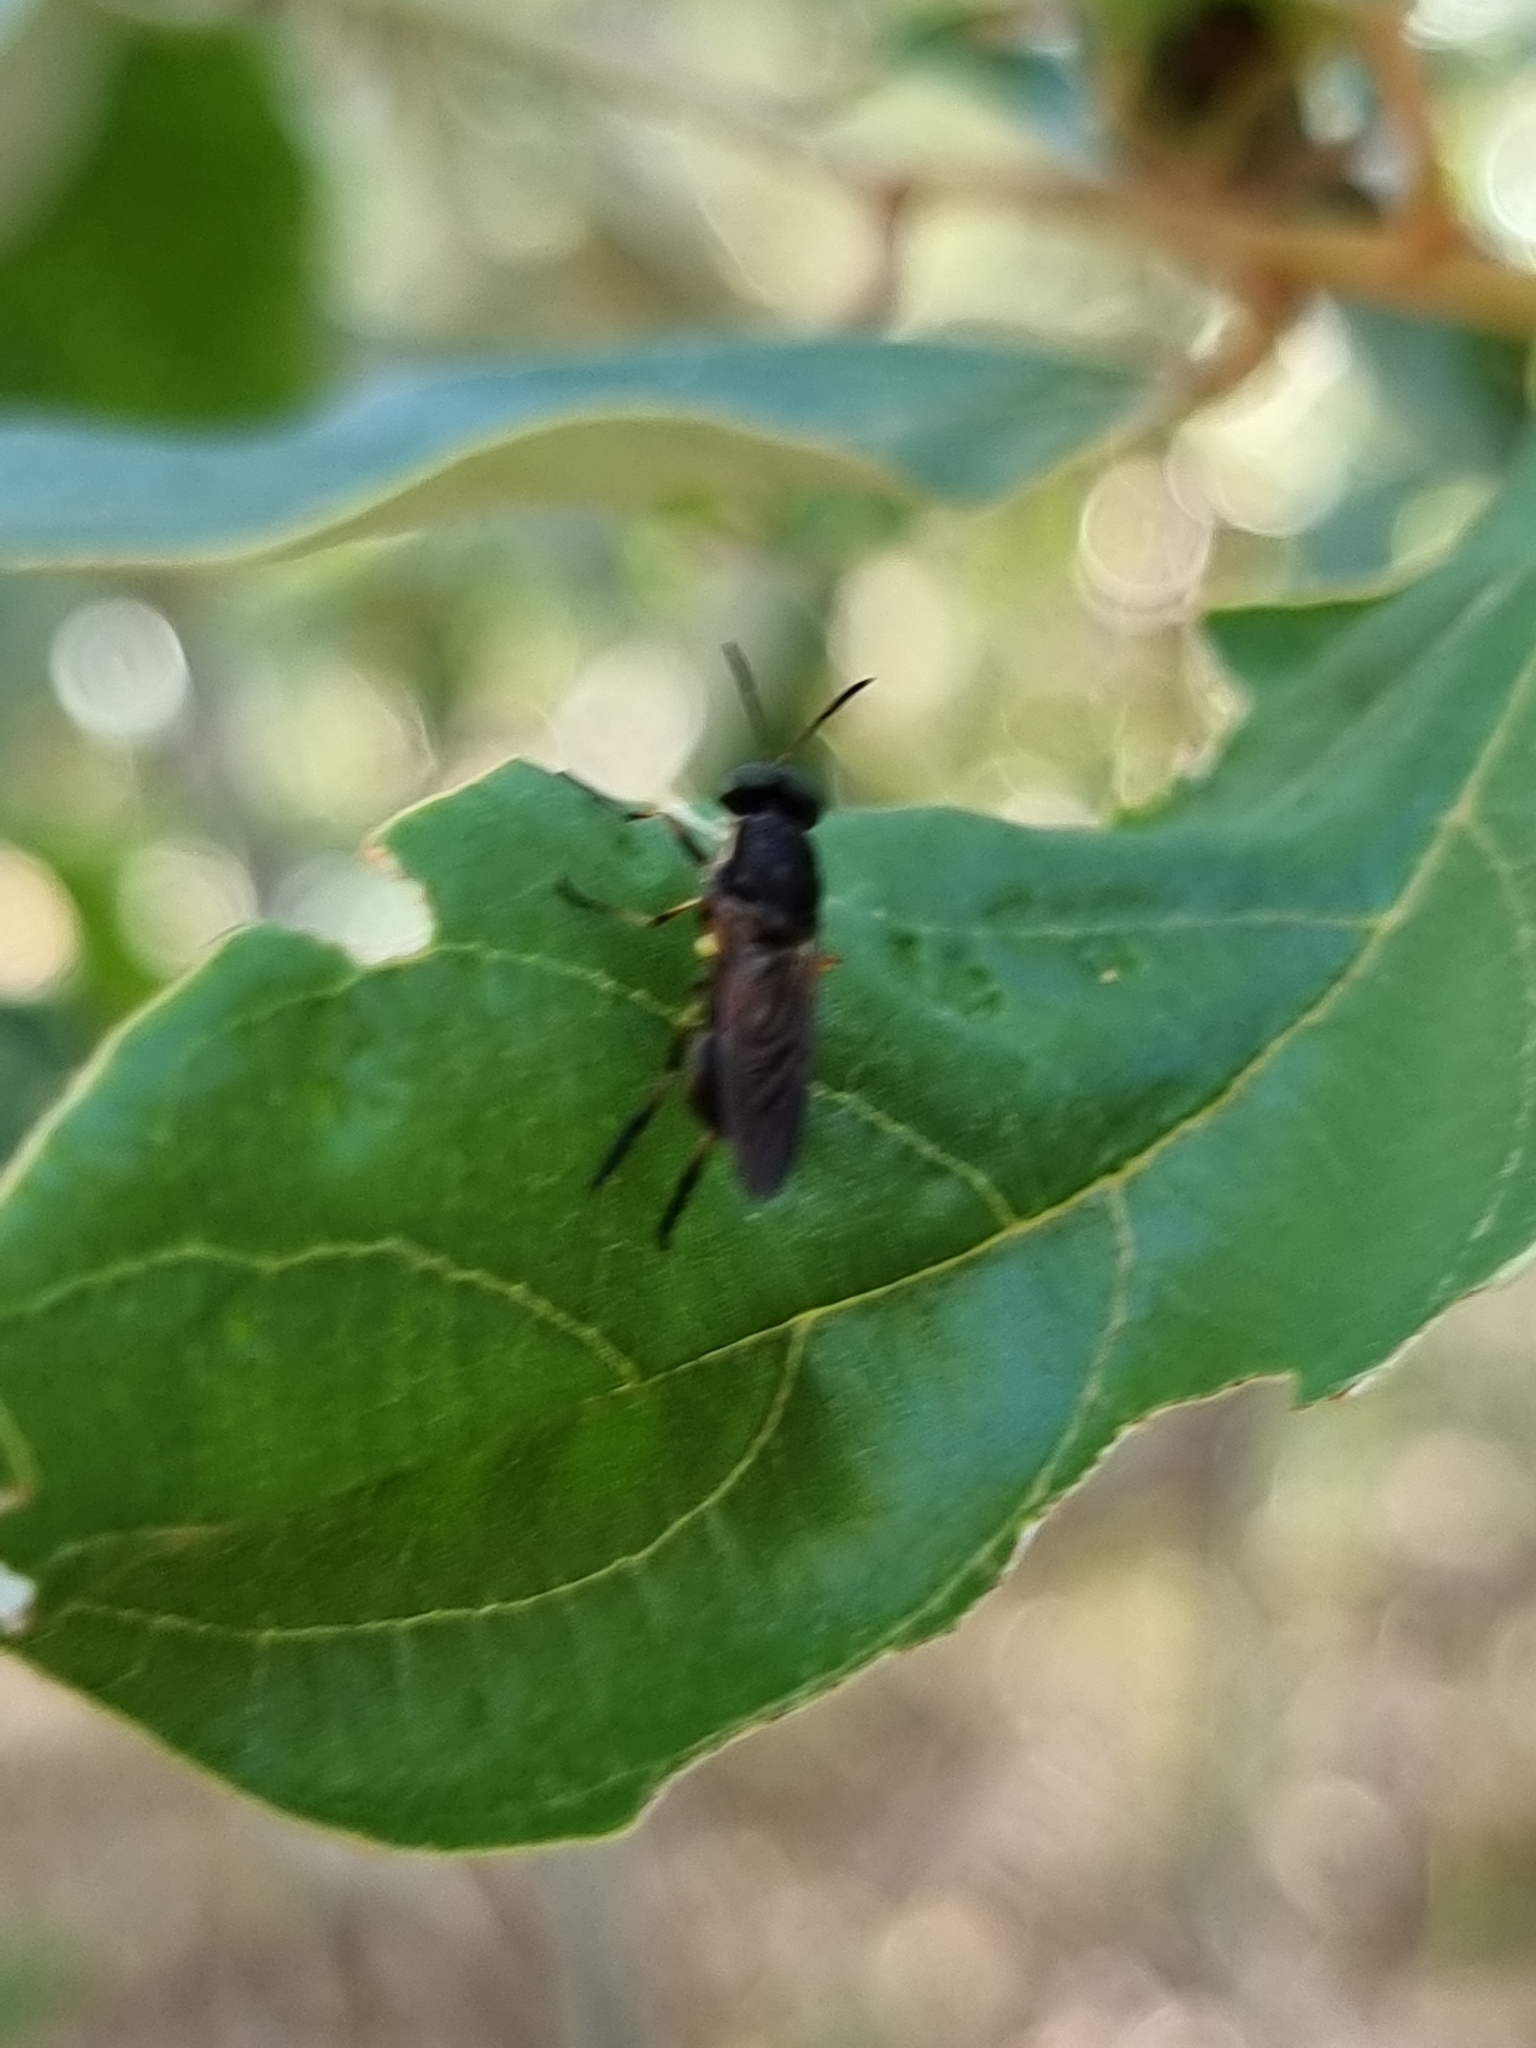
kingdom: Animalia
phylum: Arthropoda
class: Insecta
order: Diptera
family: Stratiomyidae
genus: Lagenosoma
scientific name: Lagenosoma dispar
